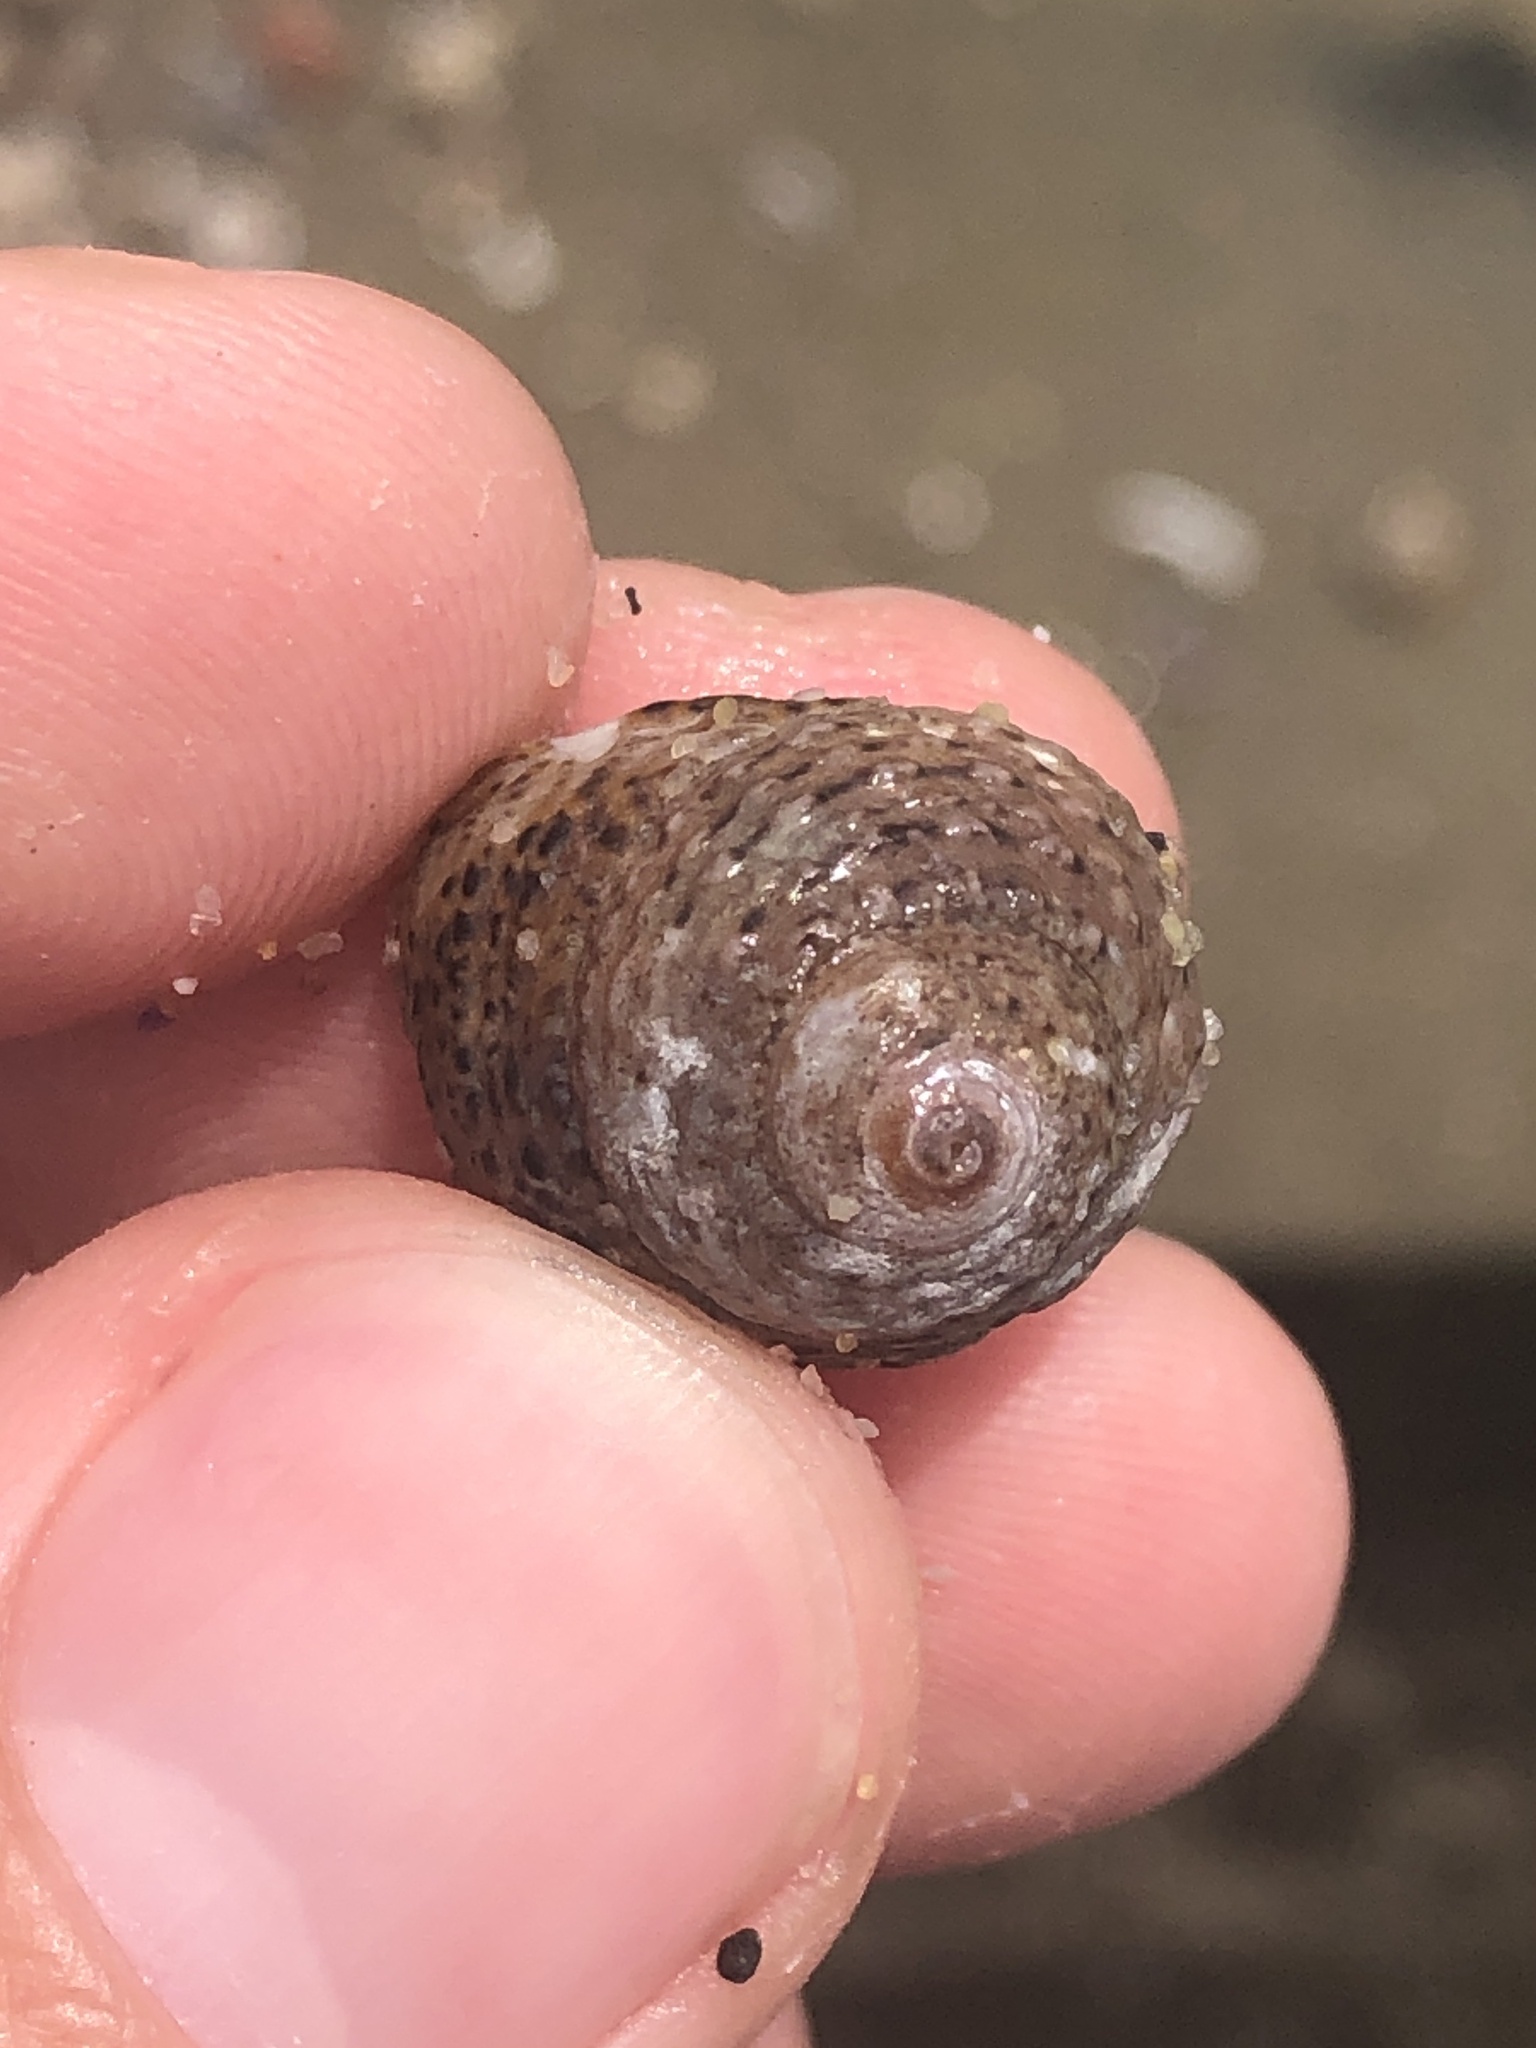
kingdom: Animalia
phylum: Mollusca
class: Gastropoda
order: Trochida
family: Tegulidae
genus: Tegula
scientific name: Tegula eiseni
